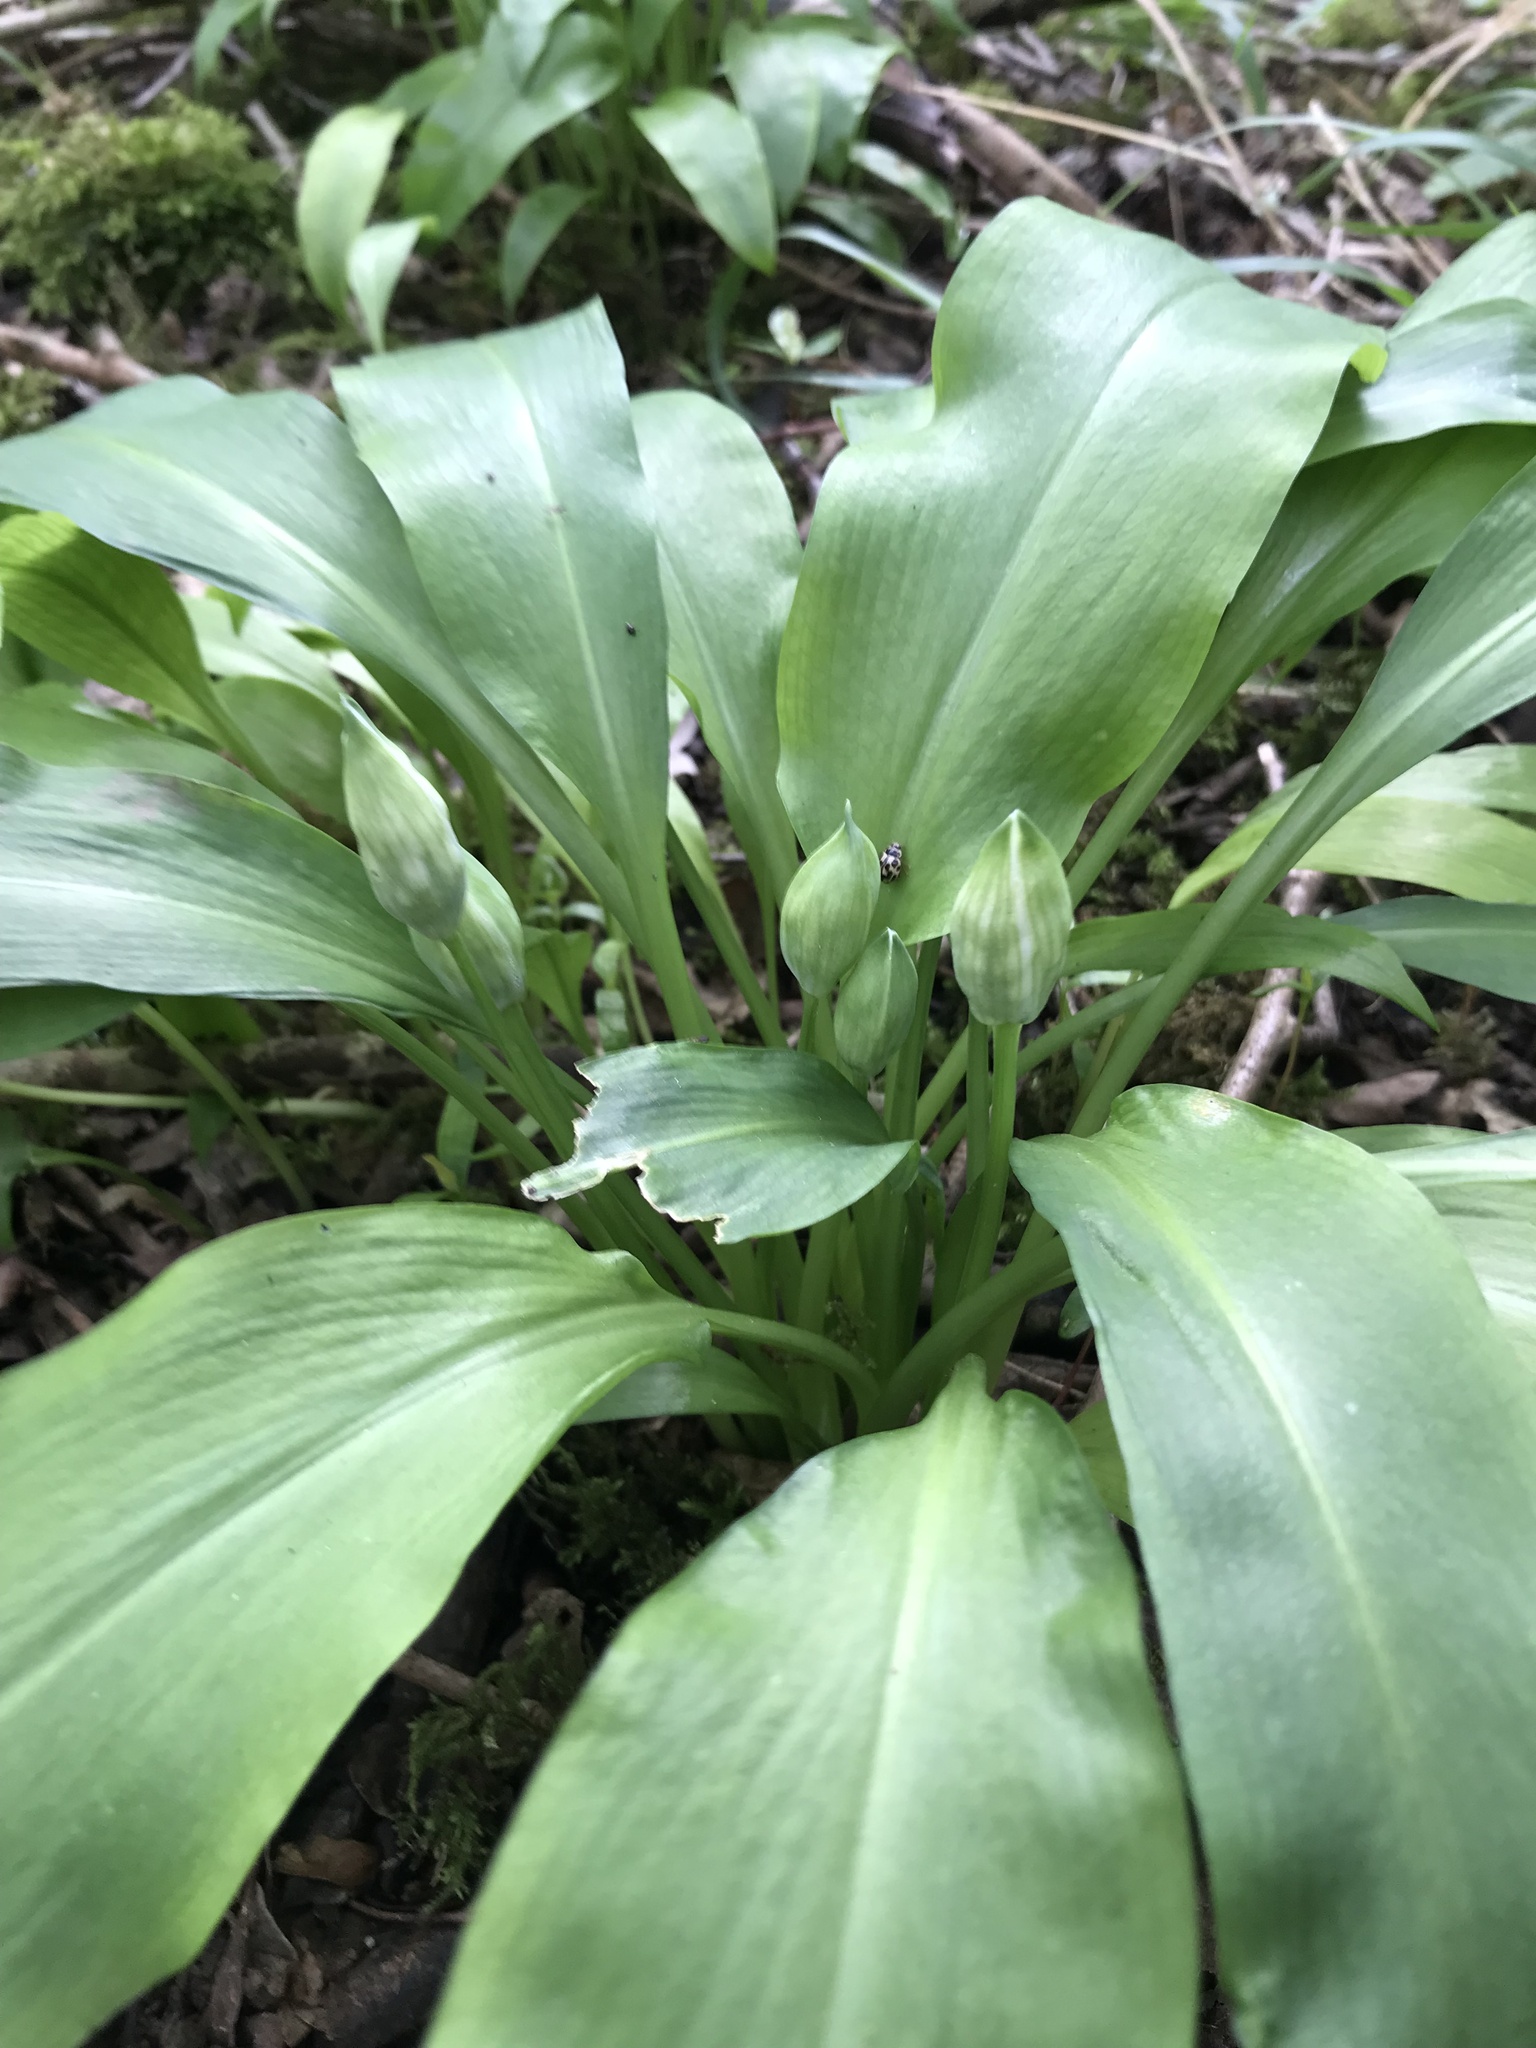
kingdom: Plantae
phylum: Tracheophyta
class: Liliopsida
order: Asparagales
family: Amaryllidaceae
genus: Allium
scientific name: Allium ursinum
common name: Ramsons
